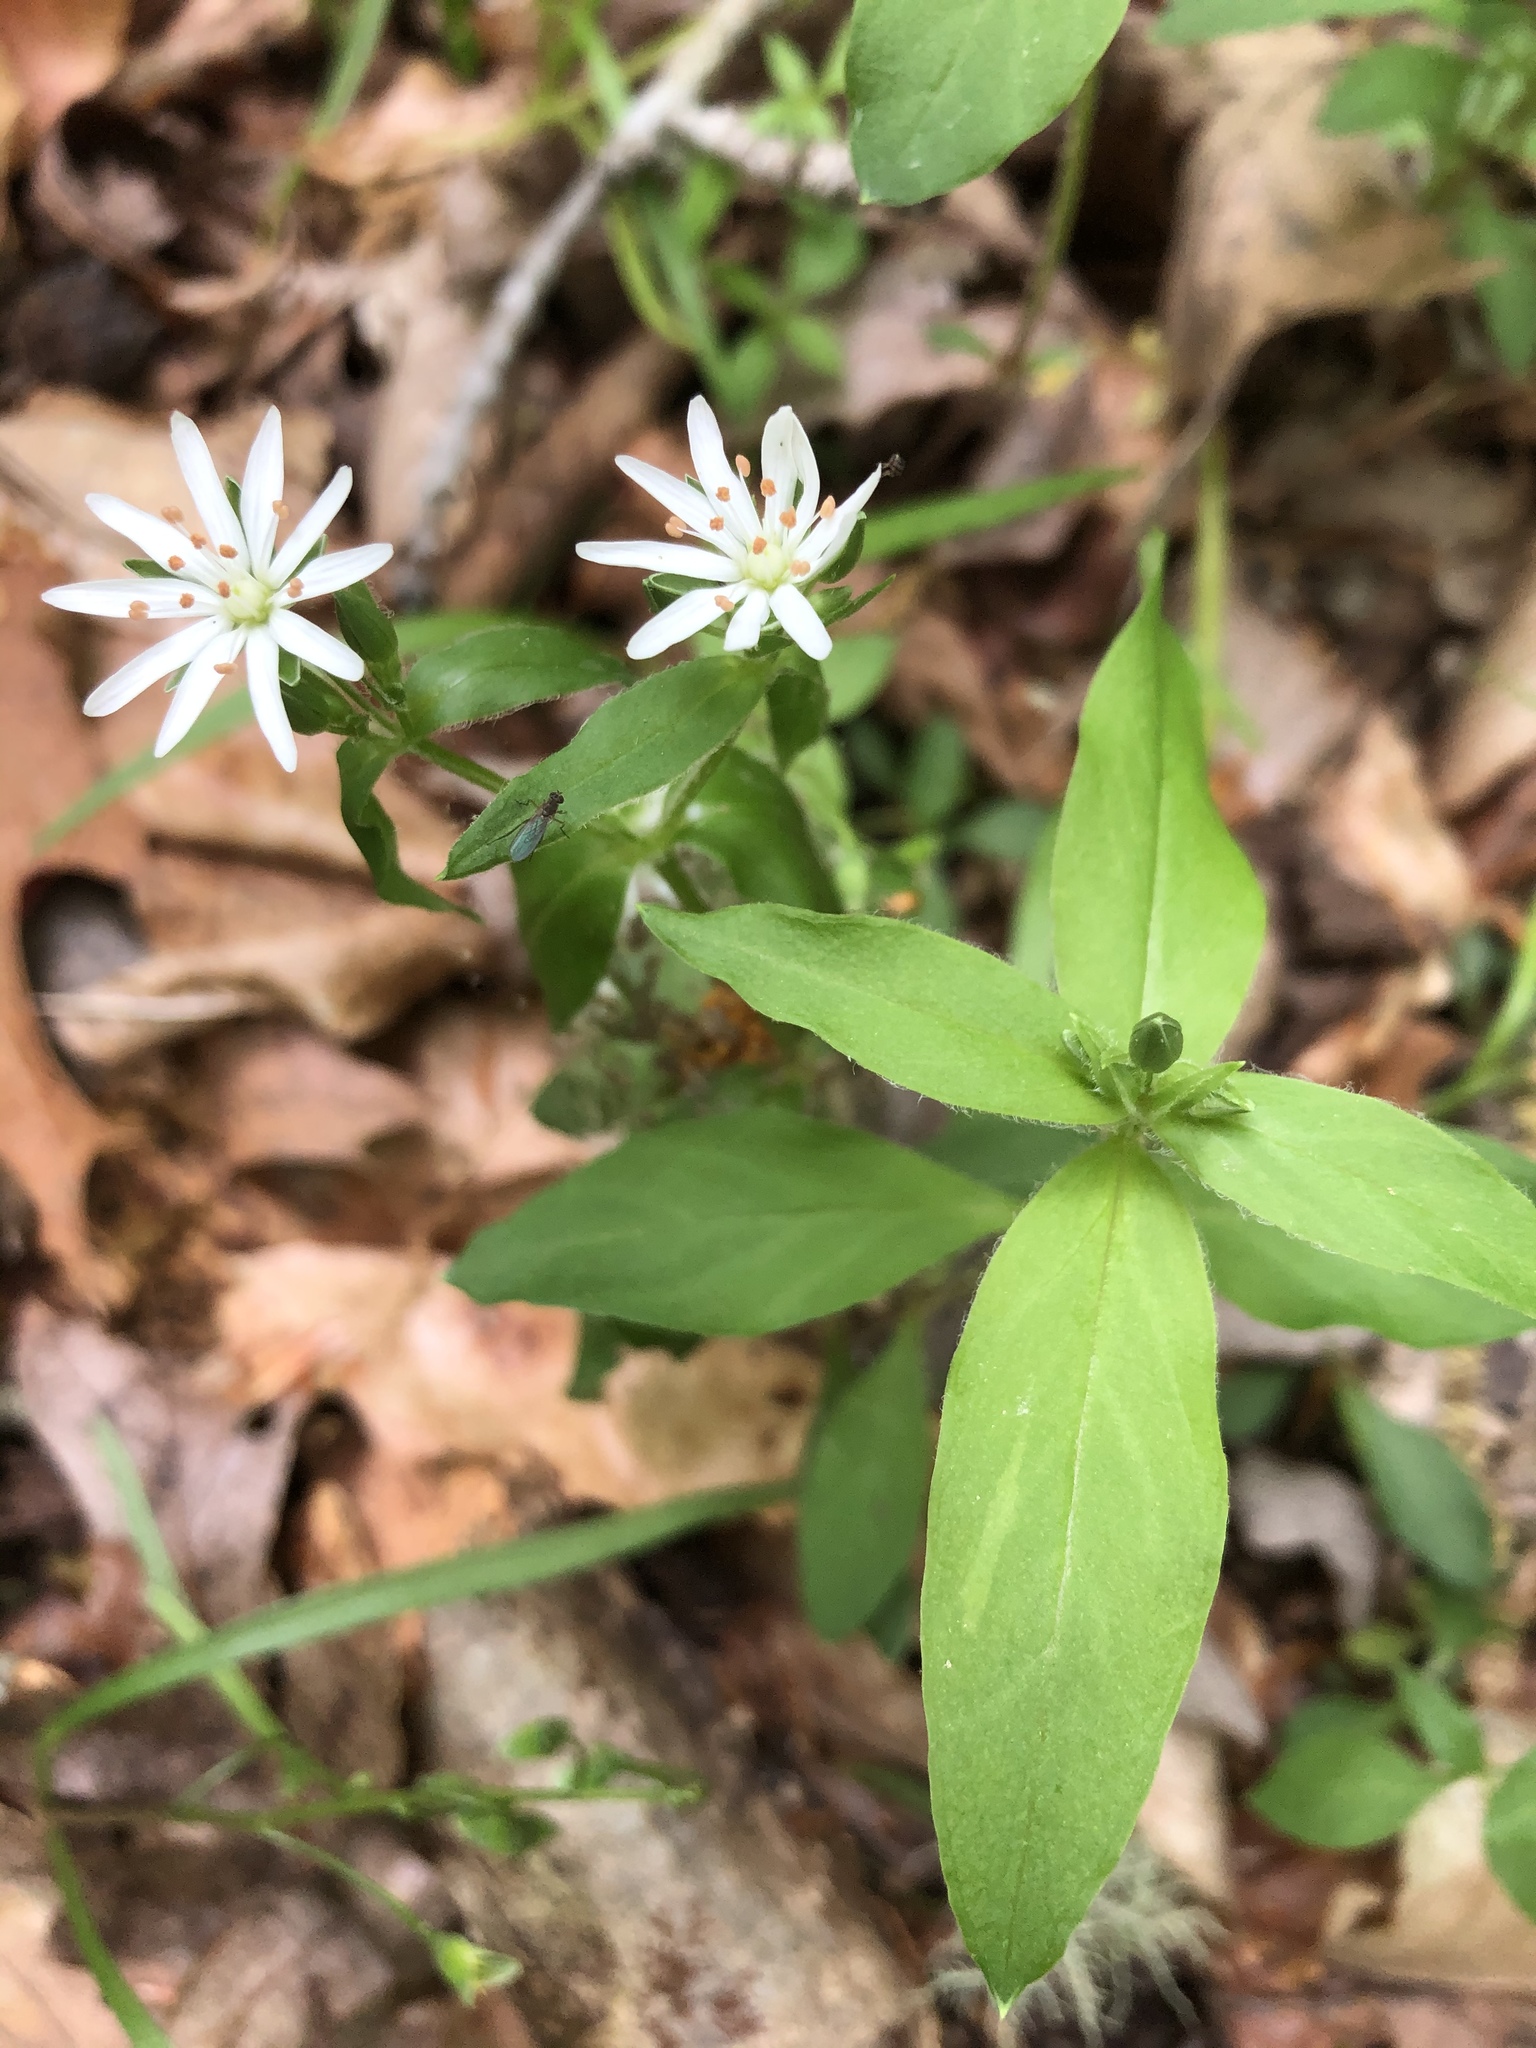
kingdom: Plantae
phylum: Tracheophyta
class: Magnoliopsida
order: Caryophyllales
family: Caryophyllaceae
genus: Stellaria
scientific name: Stellaria pubera
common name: Star chickweed
